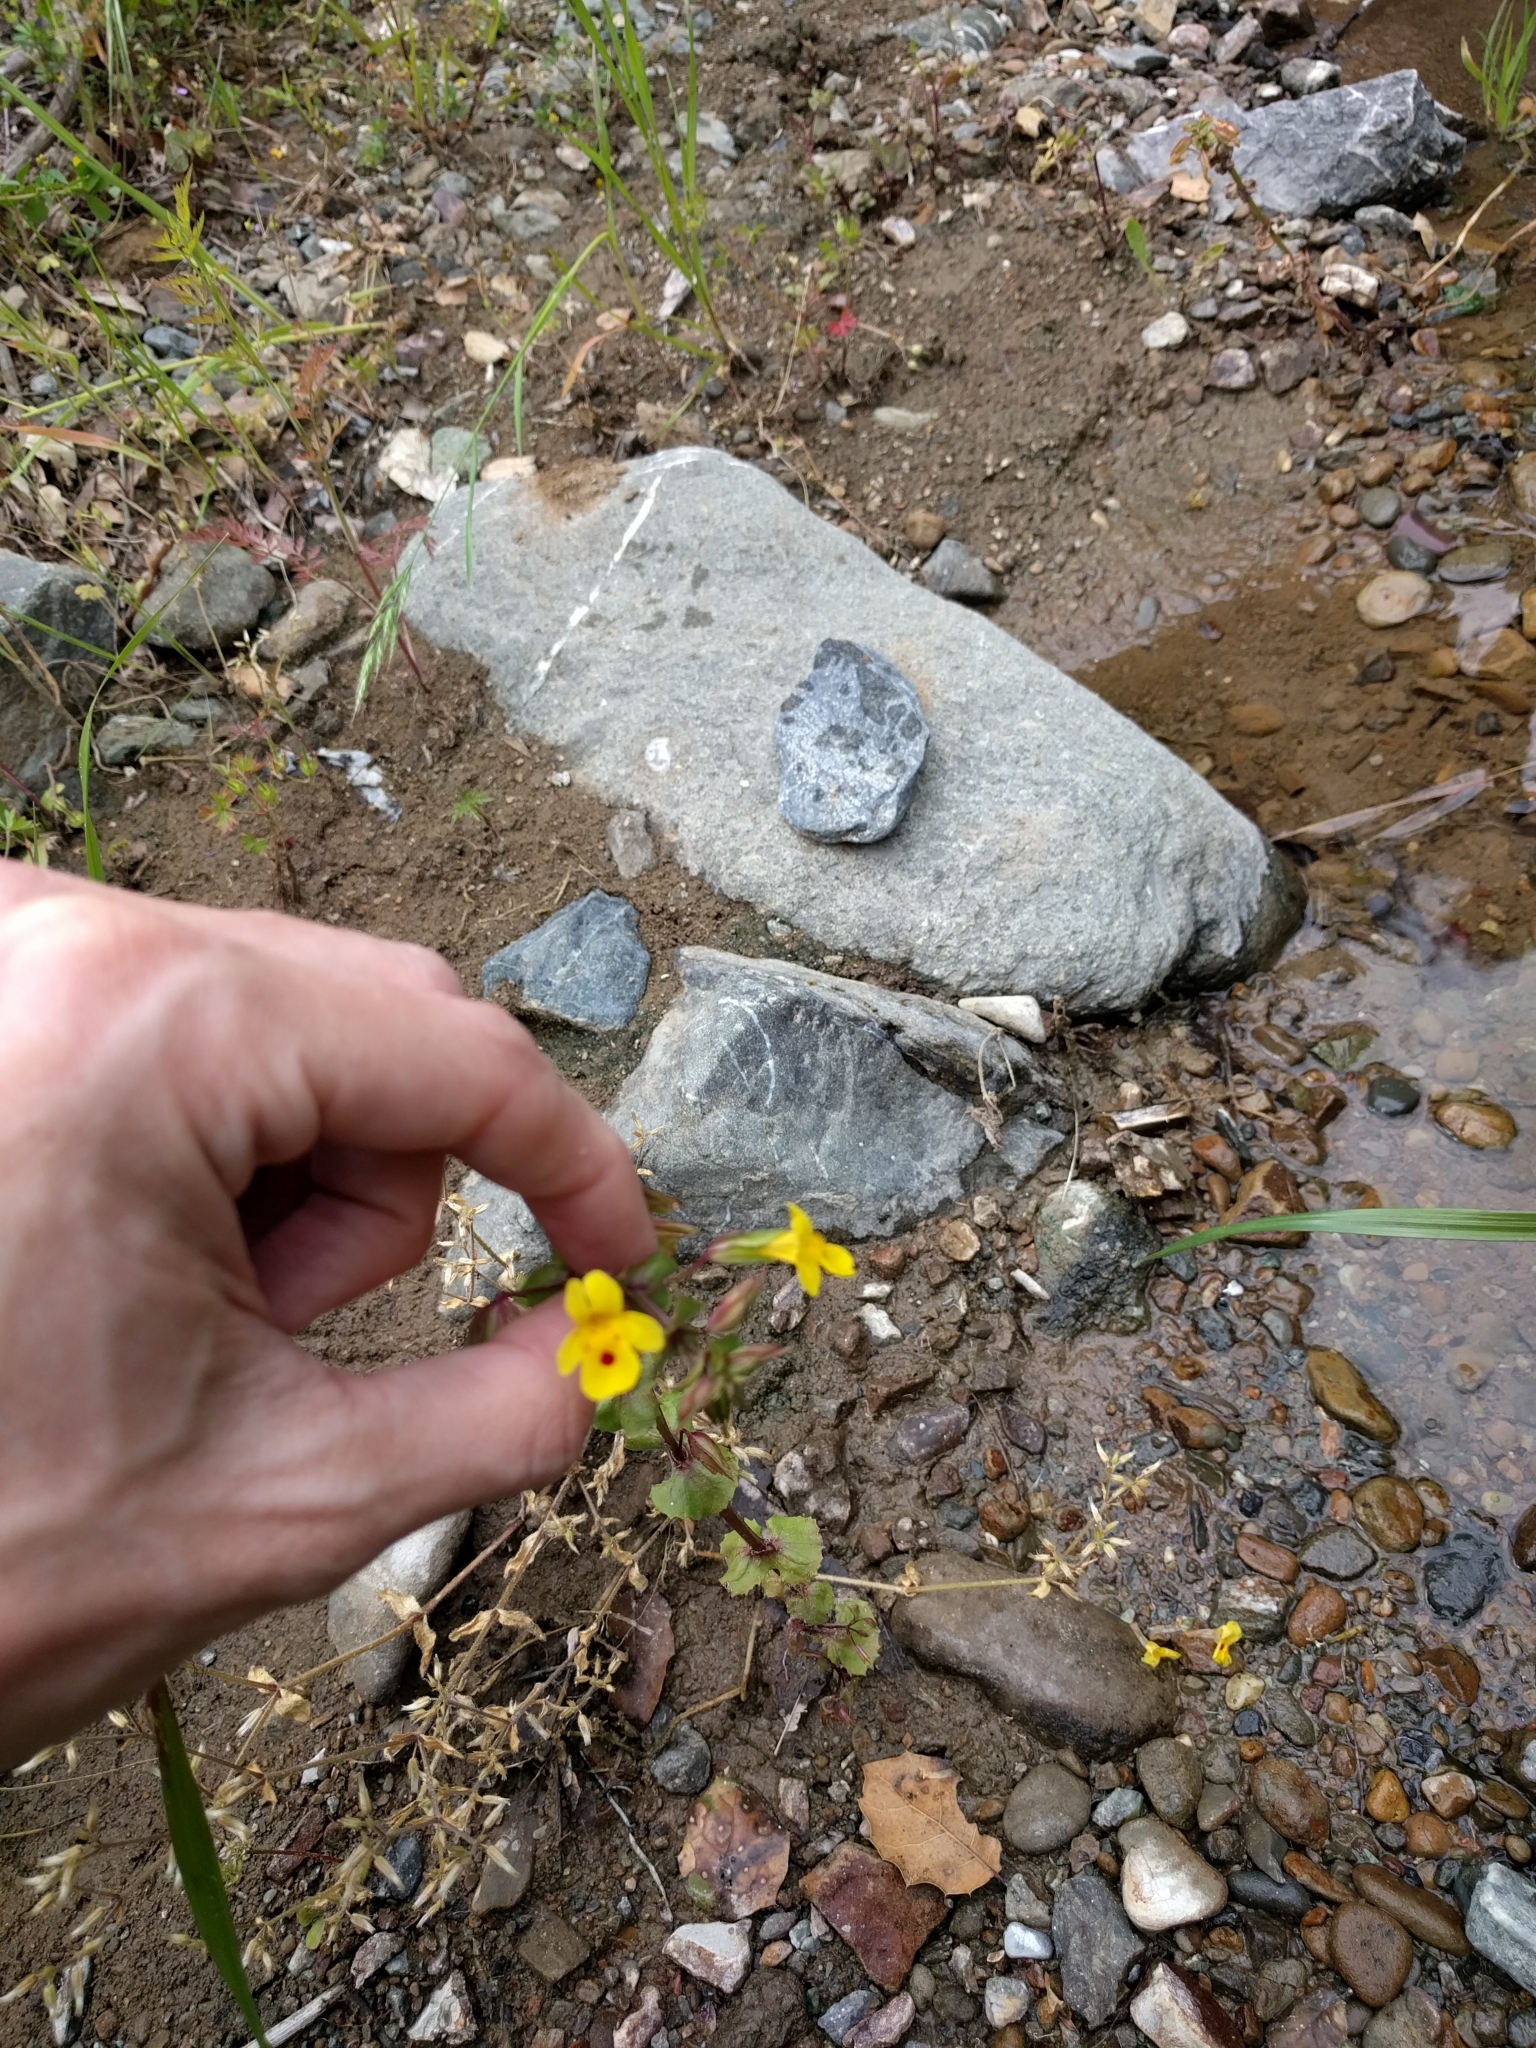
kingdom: Plantae
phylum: Tracheophyta
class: Magnoliopsida
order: Lamiales
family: Phrymaceae
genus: Erythranthe
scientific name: Erythranthe guttata
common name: Monkeyflower
